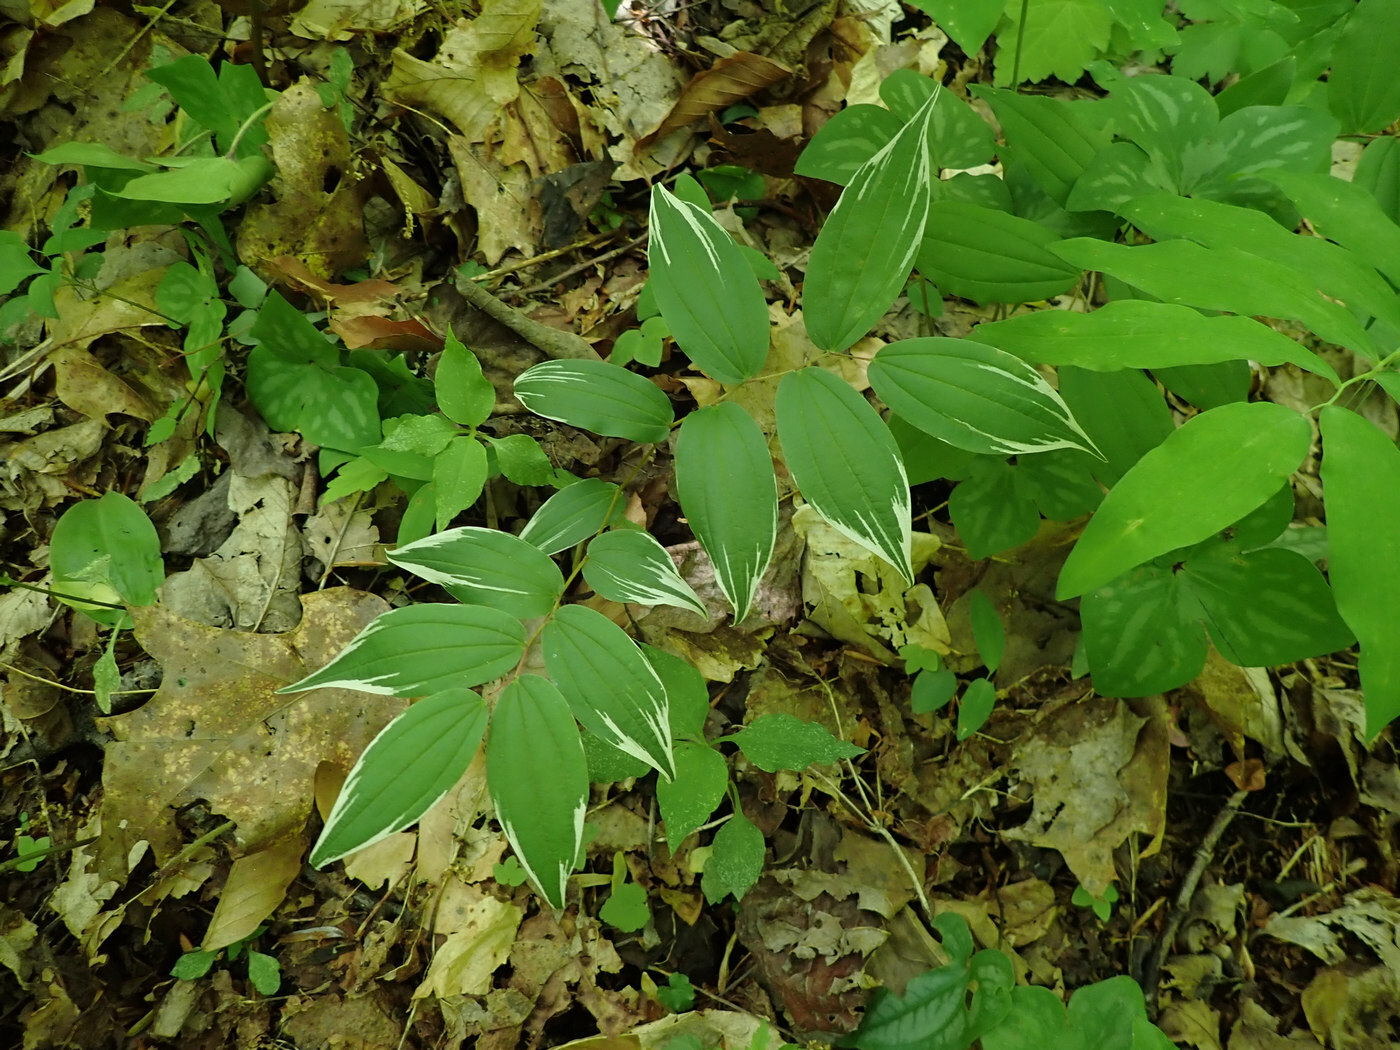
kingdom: Plantae
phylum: Tracheophyta
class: Liliopsida
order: Liliales
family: Liliaceae
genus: Prosartes
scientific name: Prosartes lanuginosa
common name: Hairy mandarin
